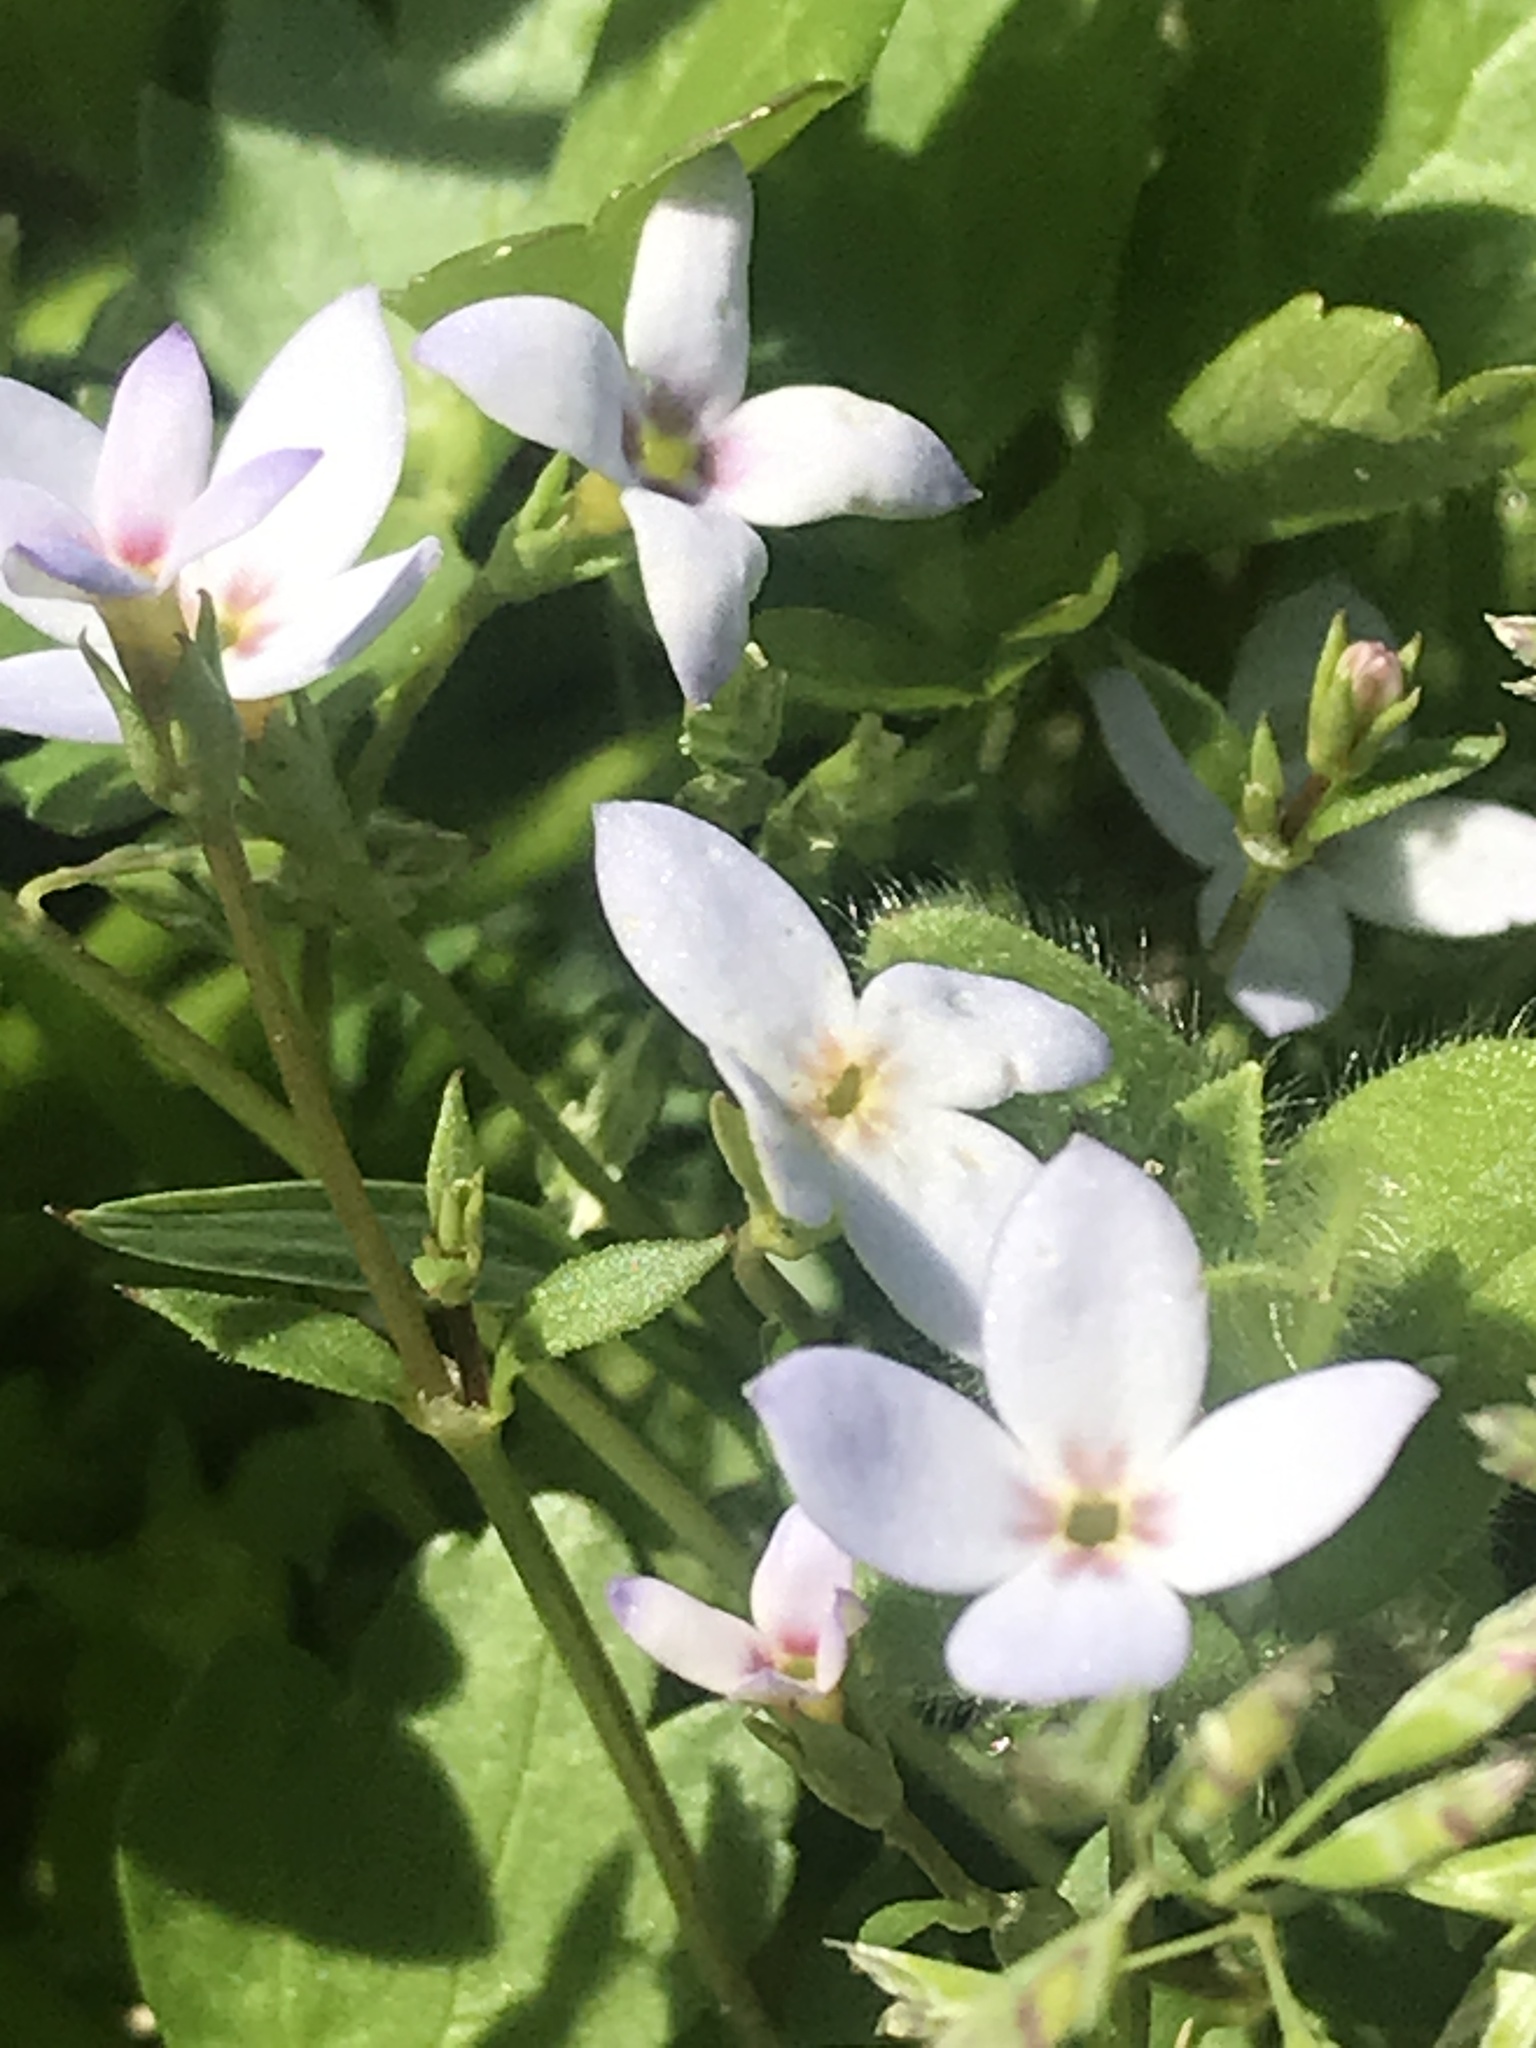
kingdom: Plantae
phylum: Tracheophyta
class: Magnoliopsida
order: Gentianales
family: Rubiaceae
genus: Houstonia
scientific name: Houstonia pusilla
